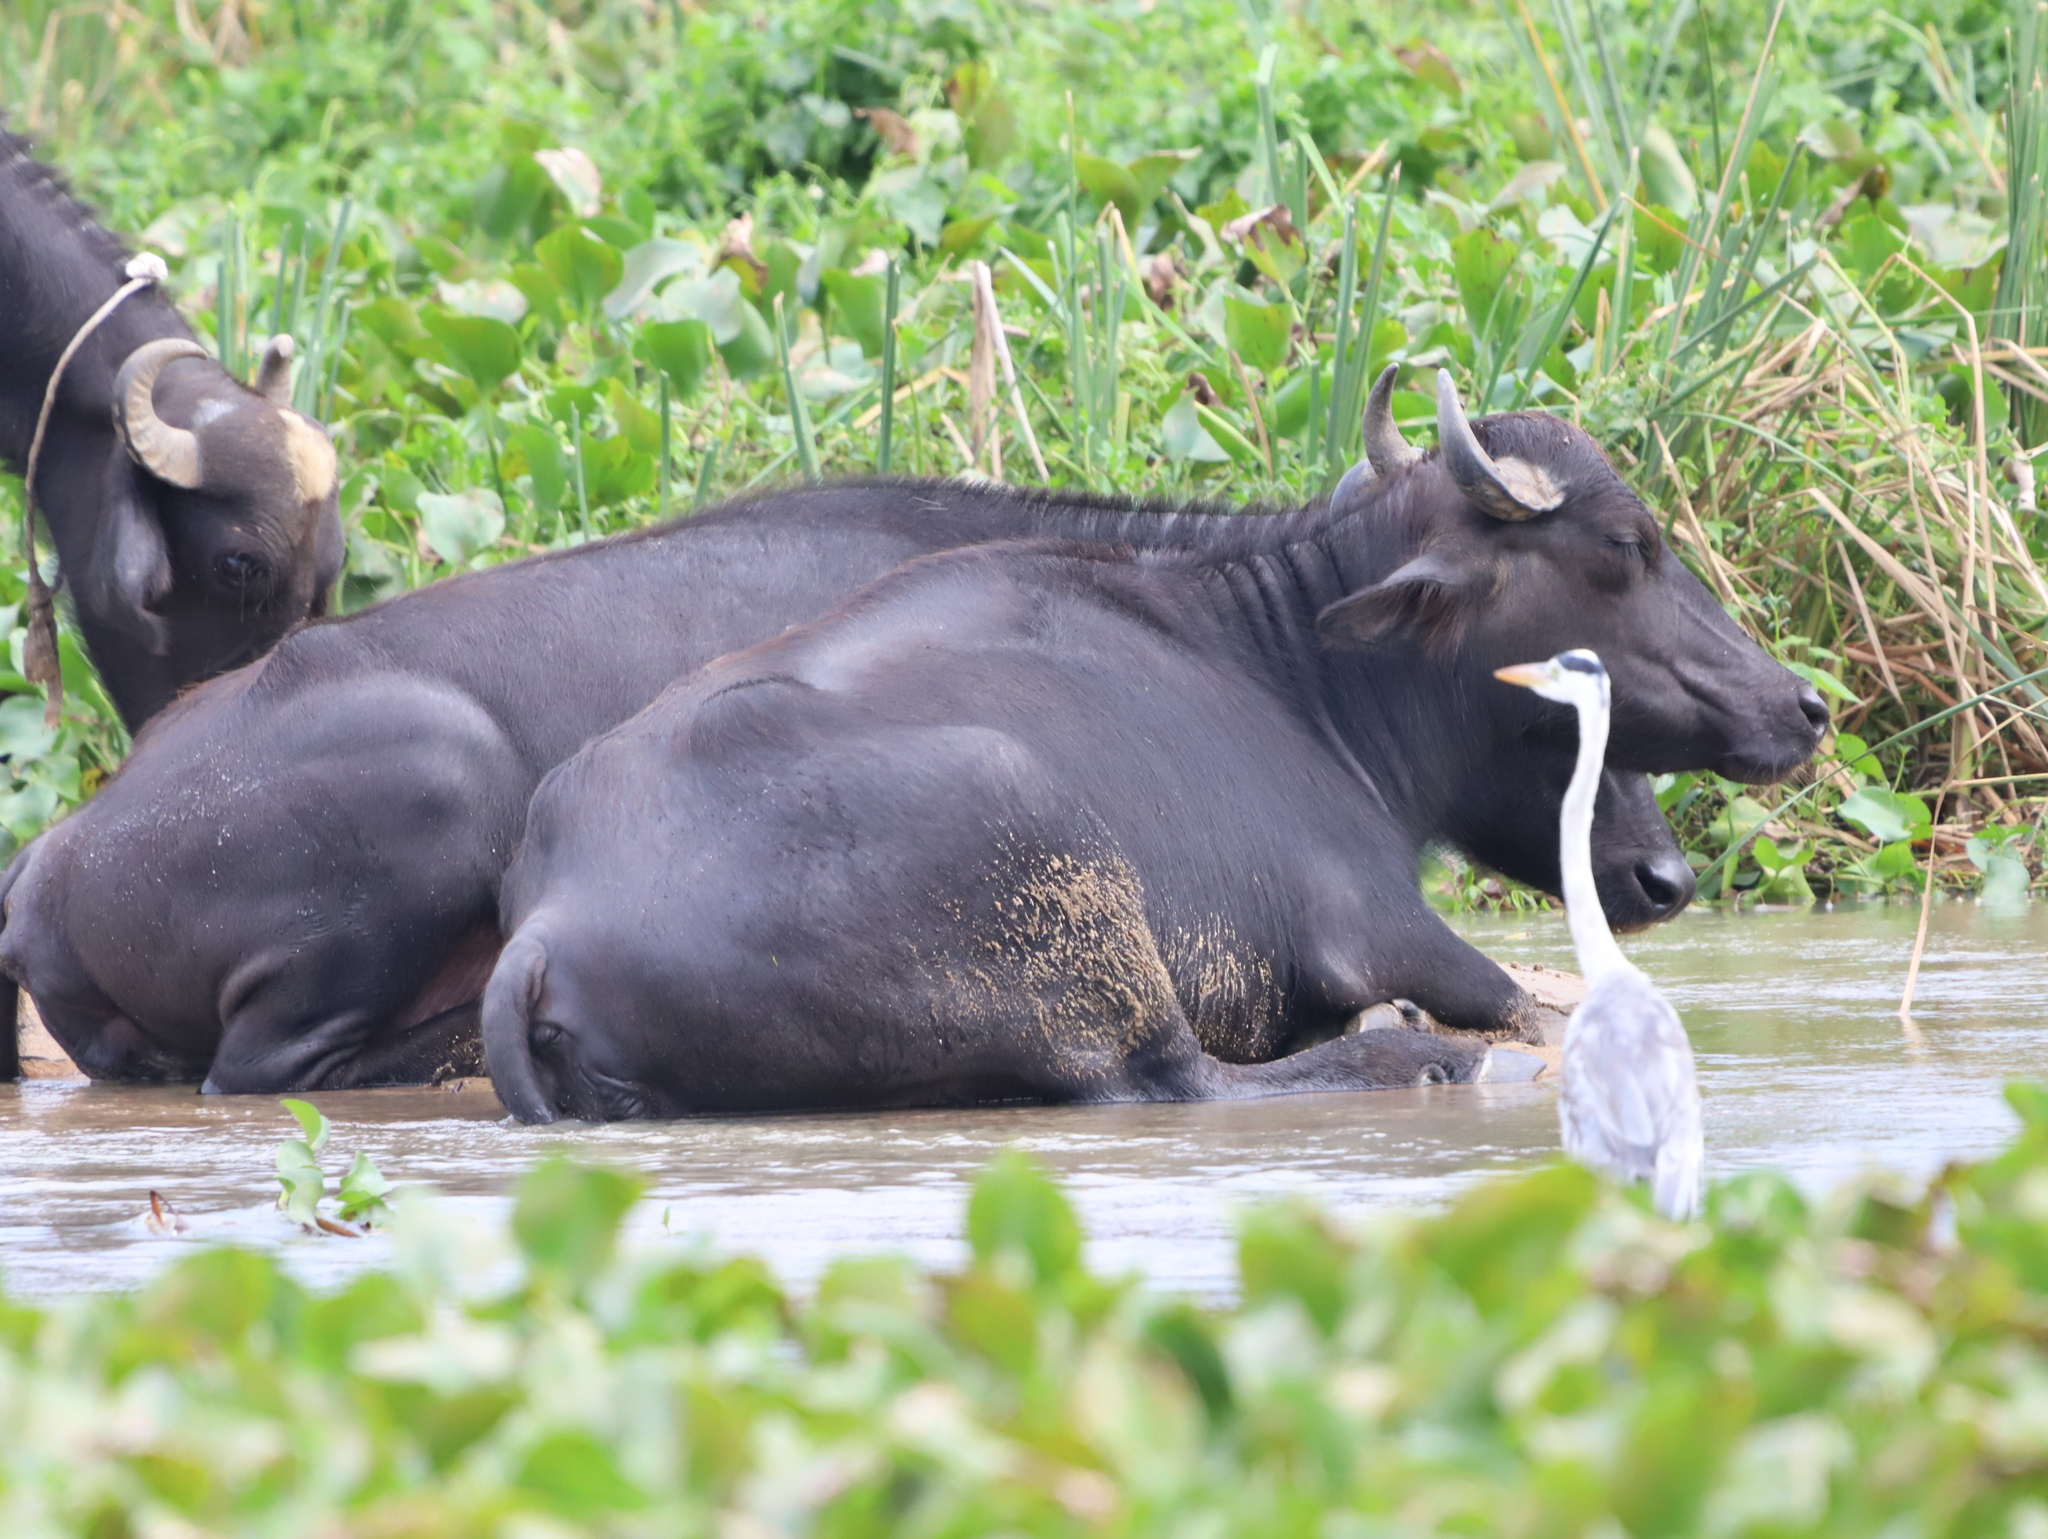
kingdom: Animalia
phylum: Chordata
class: Aves
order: Pelecaniformes
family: Ardeidae
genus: Ardea
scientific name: Ardea cinerea
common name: Grey heron
